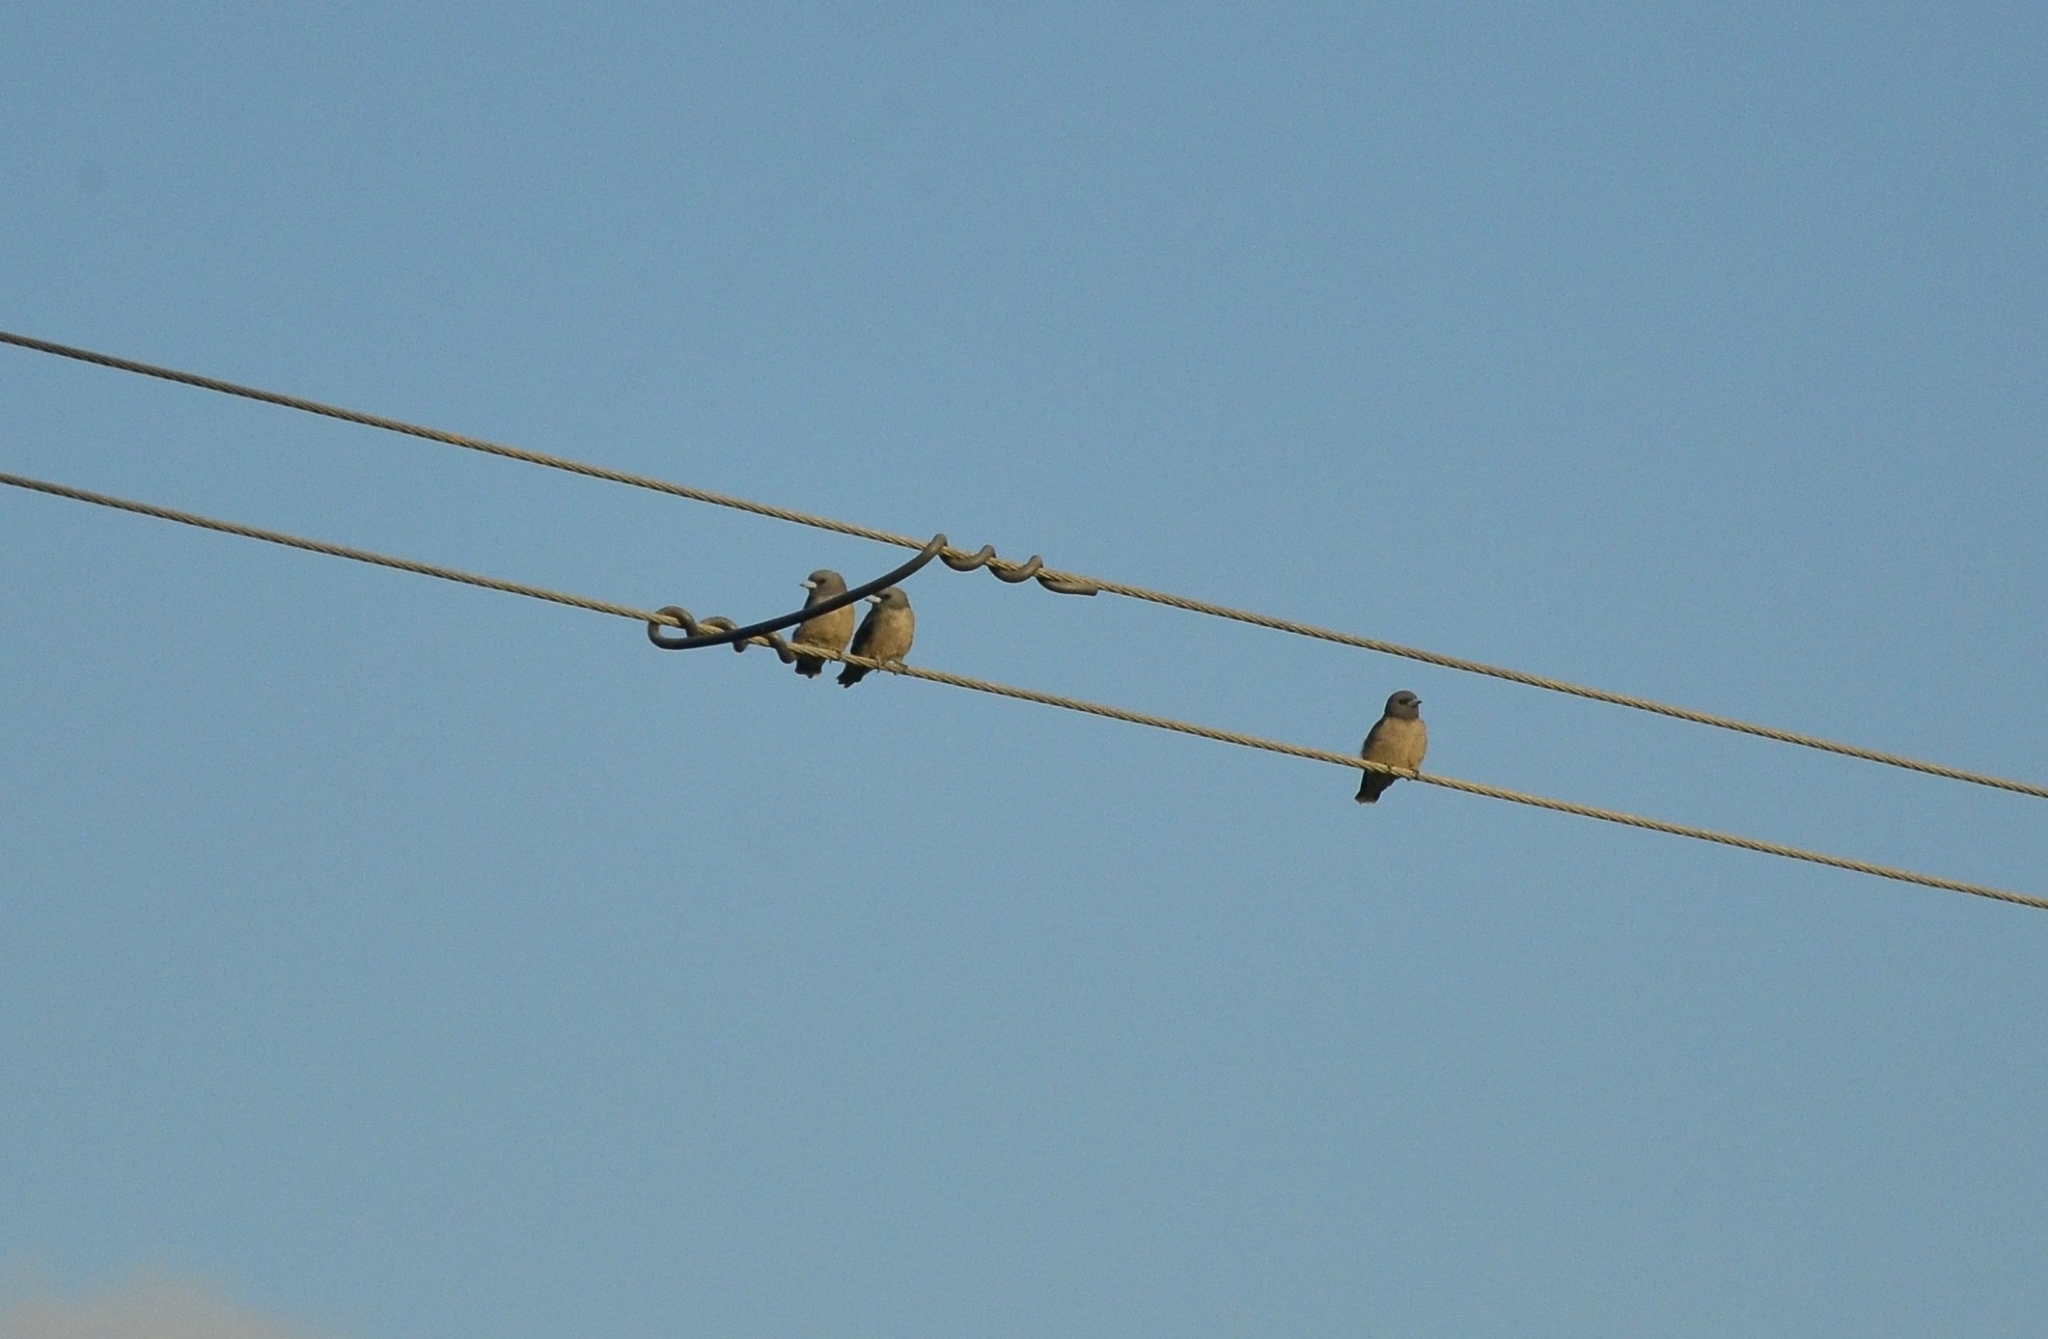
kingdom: Animalia
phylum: Chordata
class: Aves
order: Passeriformes
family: Artamidae
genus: Artamus
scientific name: Artamus fuscus
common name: Ashy woodswallow
